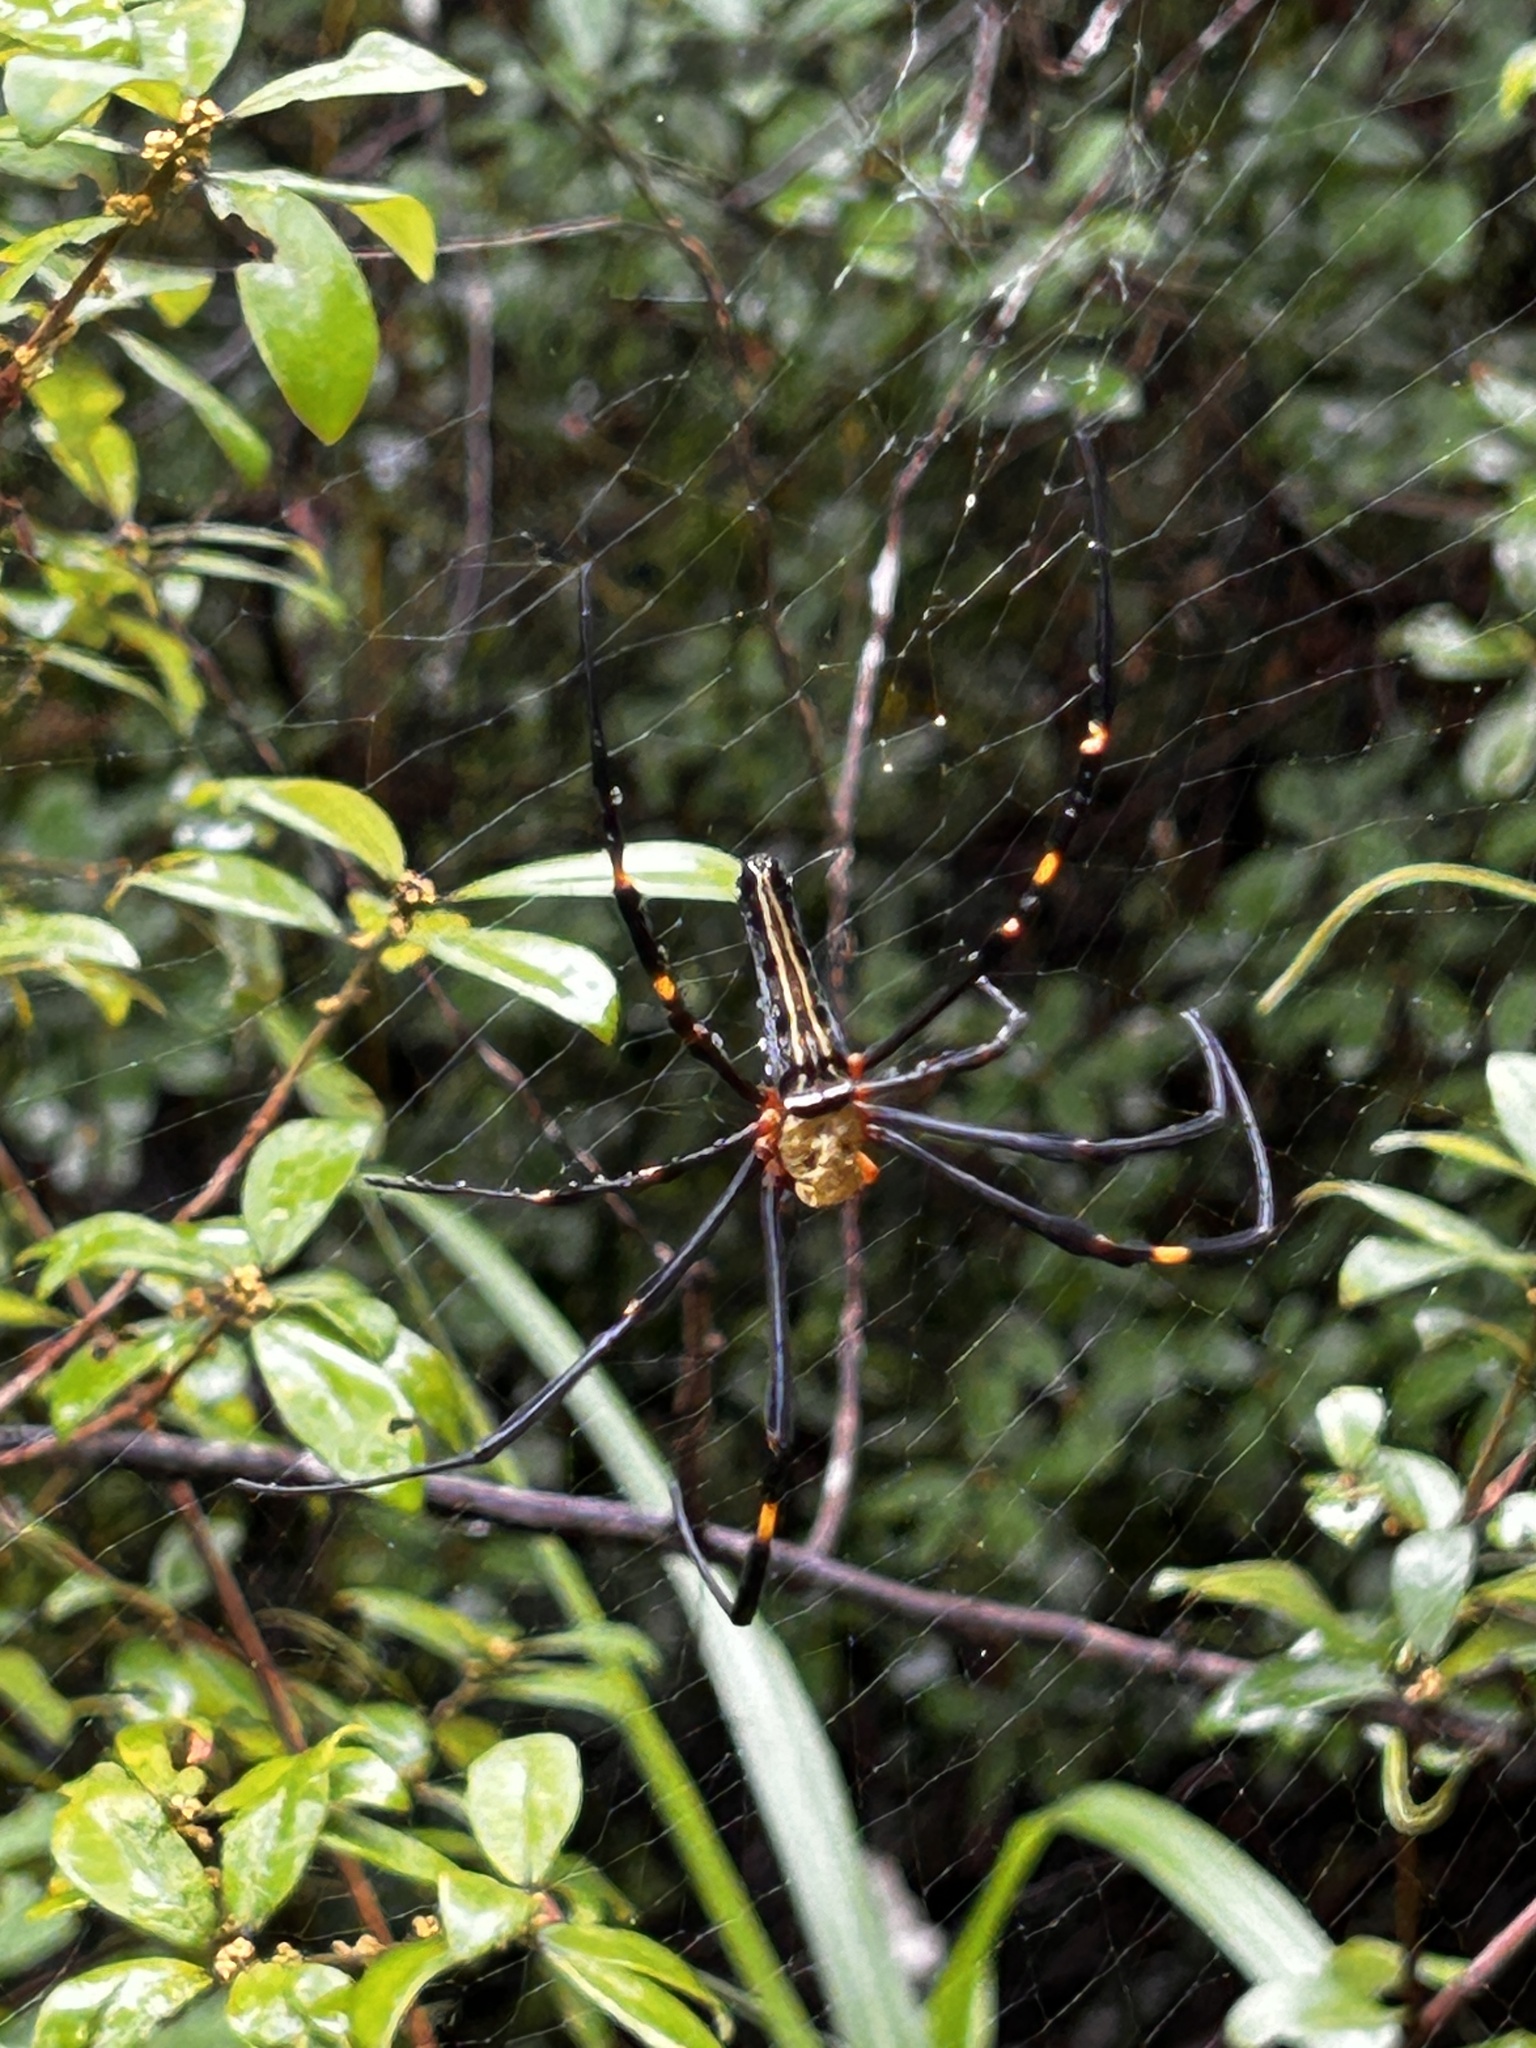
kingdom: Animalia
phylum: Arthropoda
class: Arachnida
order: Araneae
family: Araneidae
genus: Nephila
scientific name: Nephila pilipes
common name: Giant golden orb weaver
